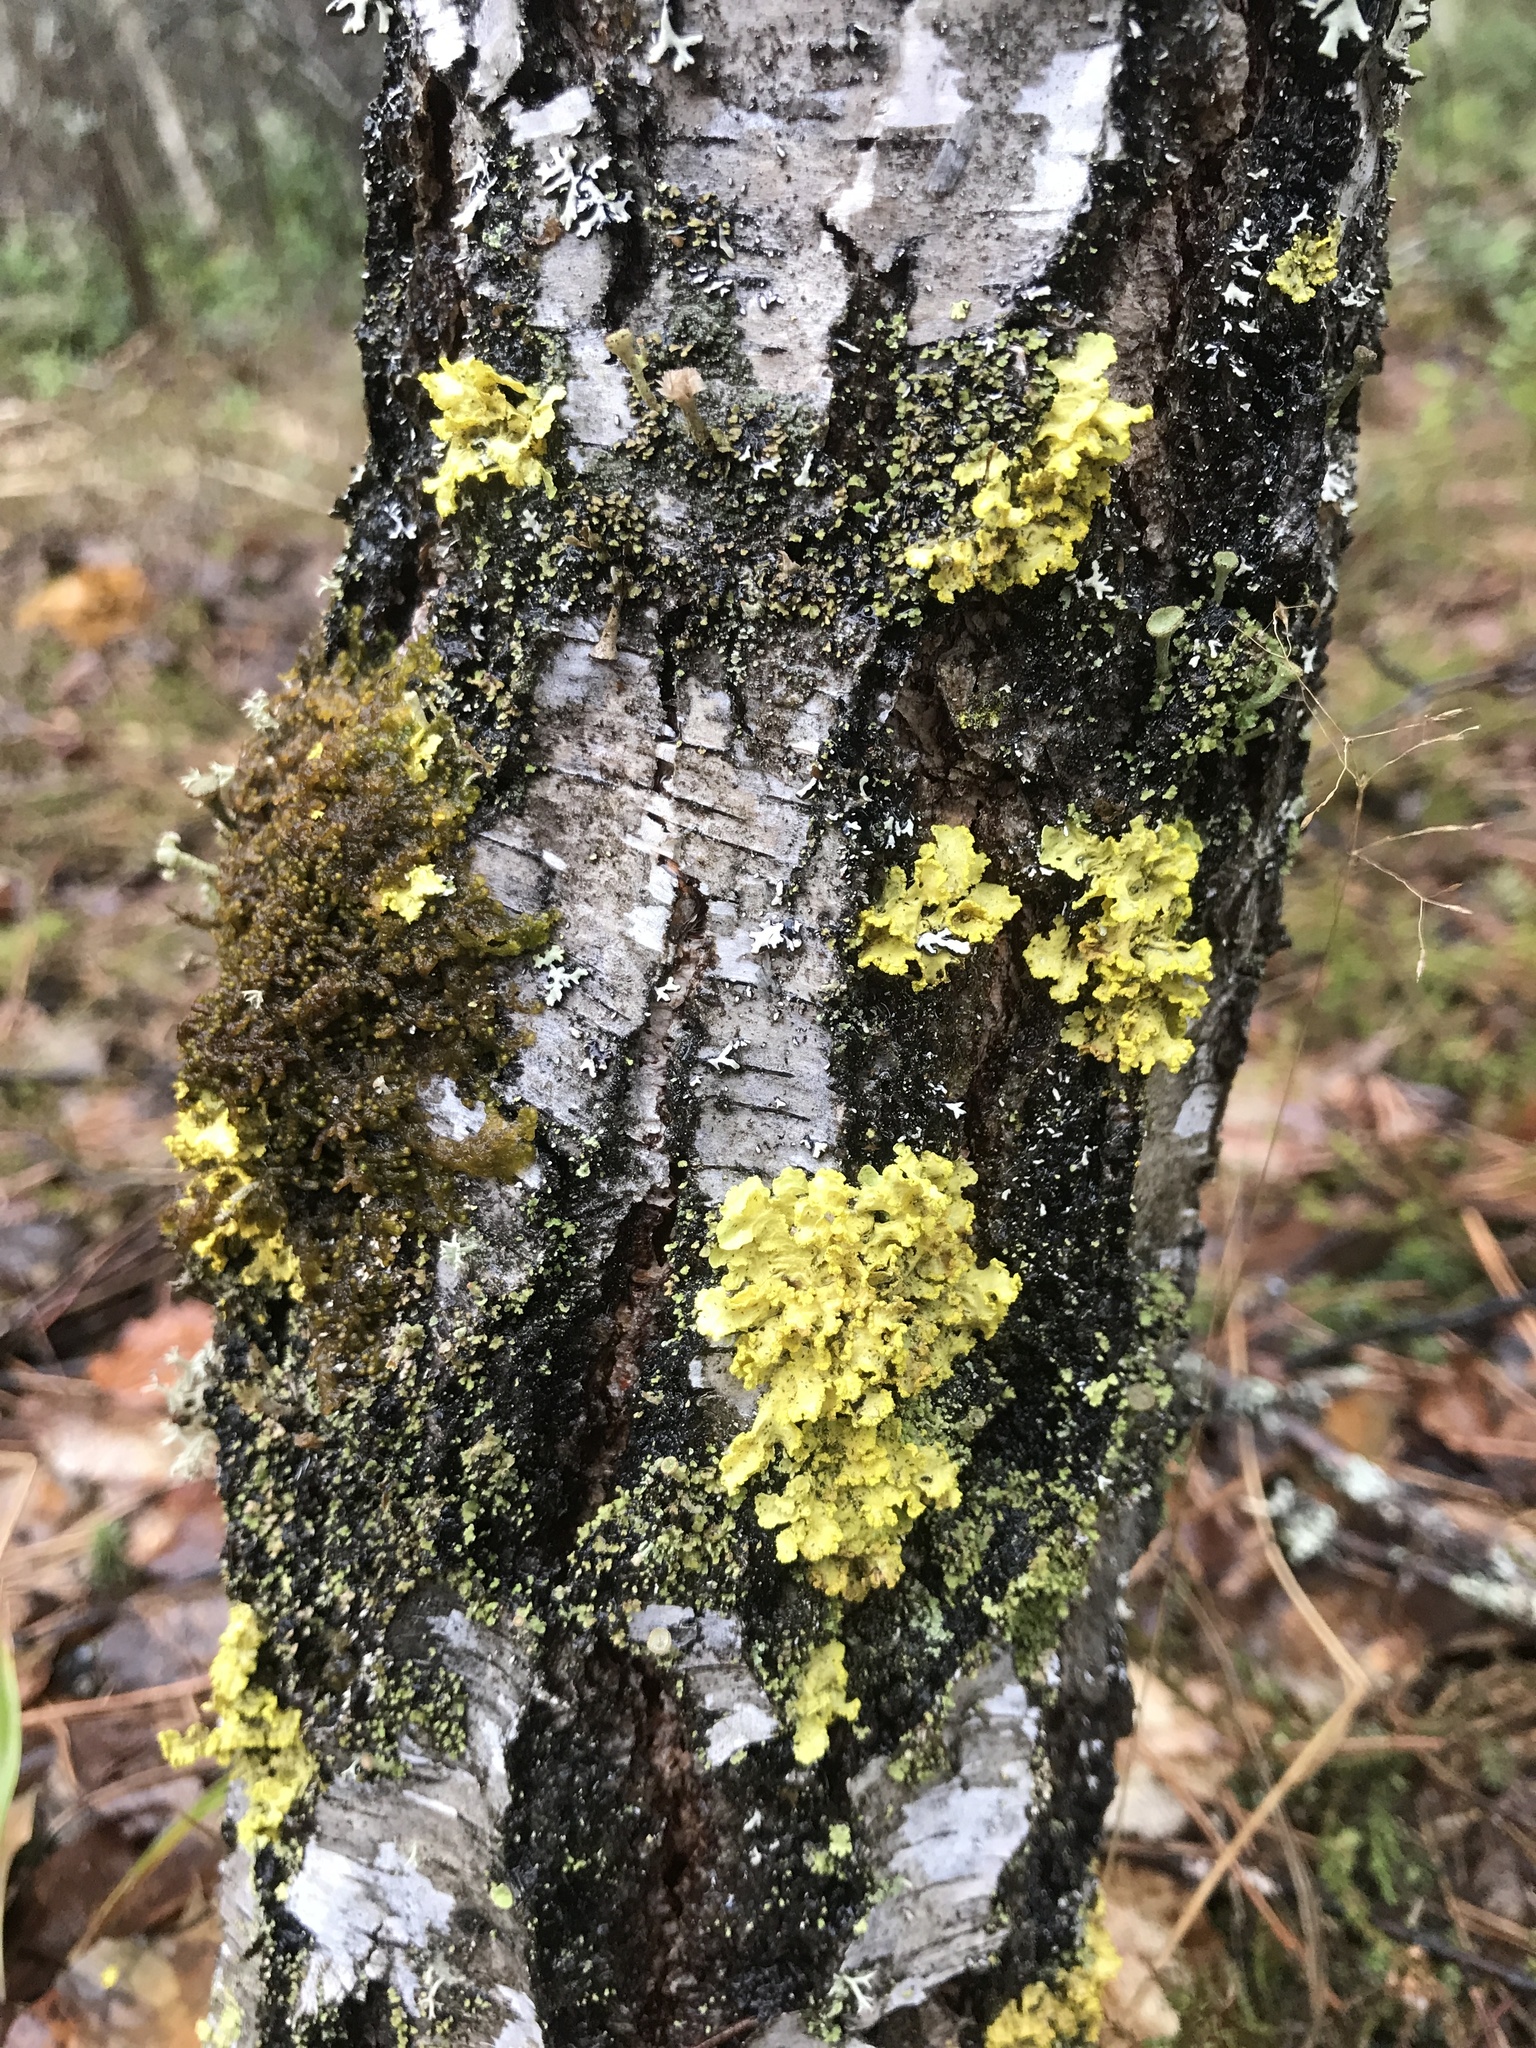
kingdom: Fungi
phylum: Ascomycota
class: Lecanoromycetes
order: Lecanorales
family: Parmeliaceae
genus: Vulpicida
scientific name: Vulpicida pinastri
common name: Powdered sunshine lichen
